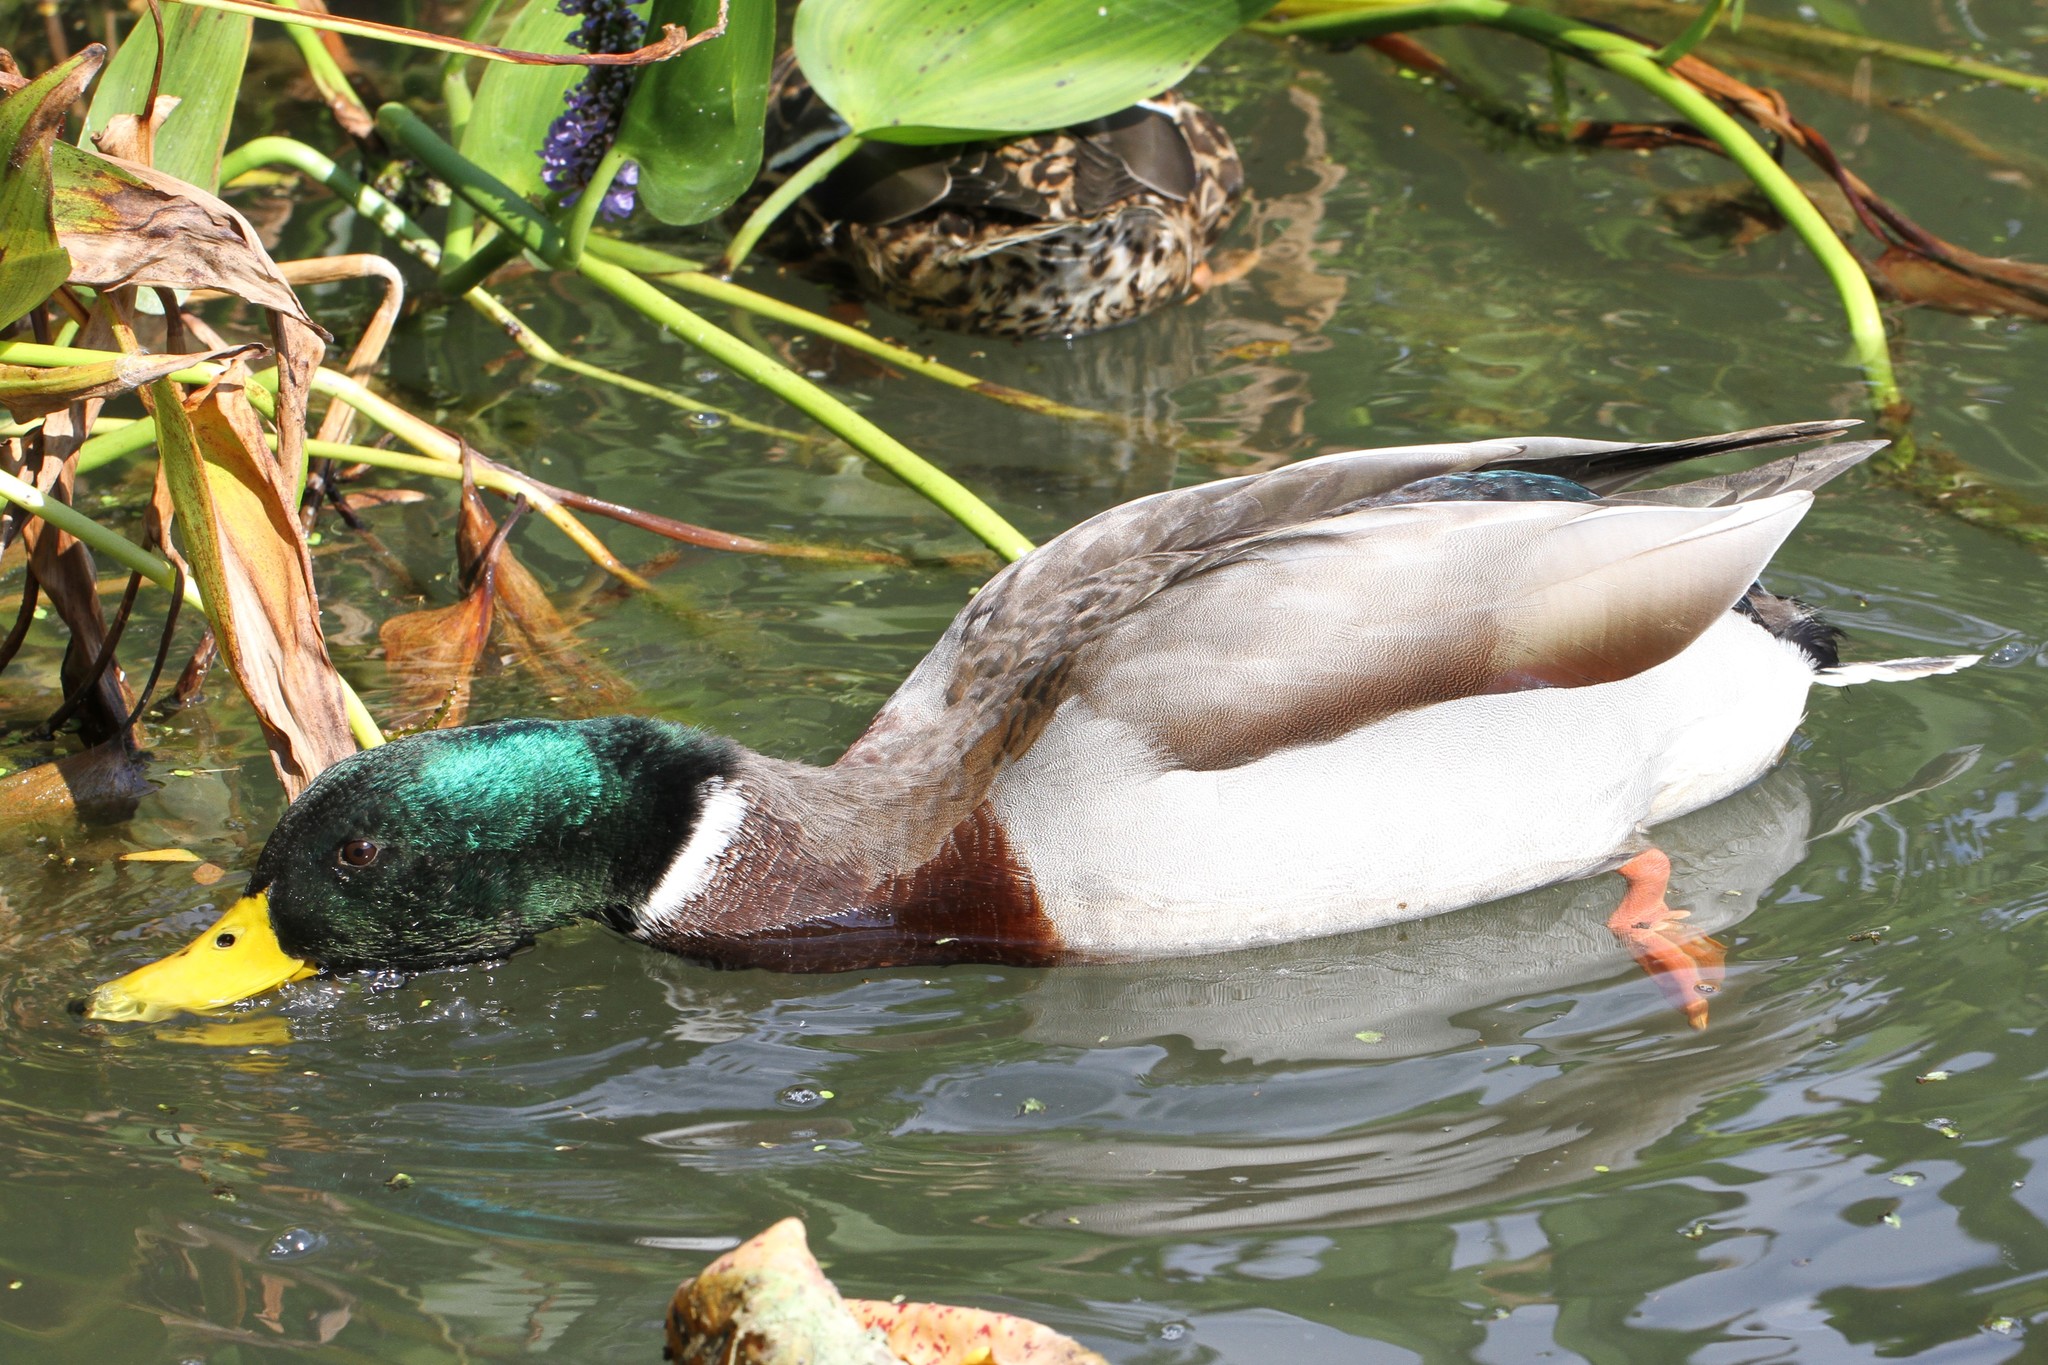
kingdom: Animalia
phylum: Chordata
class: Aves
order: Anseriformes
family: Anatidae
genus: Anas
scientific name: Anas platyrhynchos
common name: Mallard
